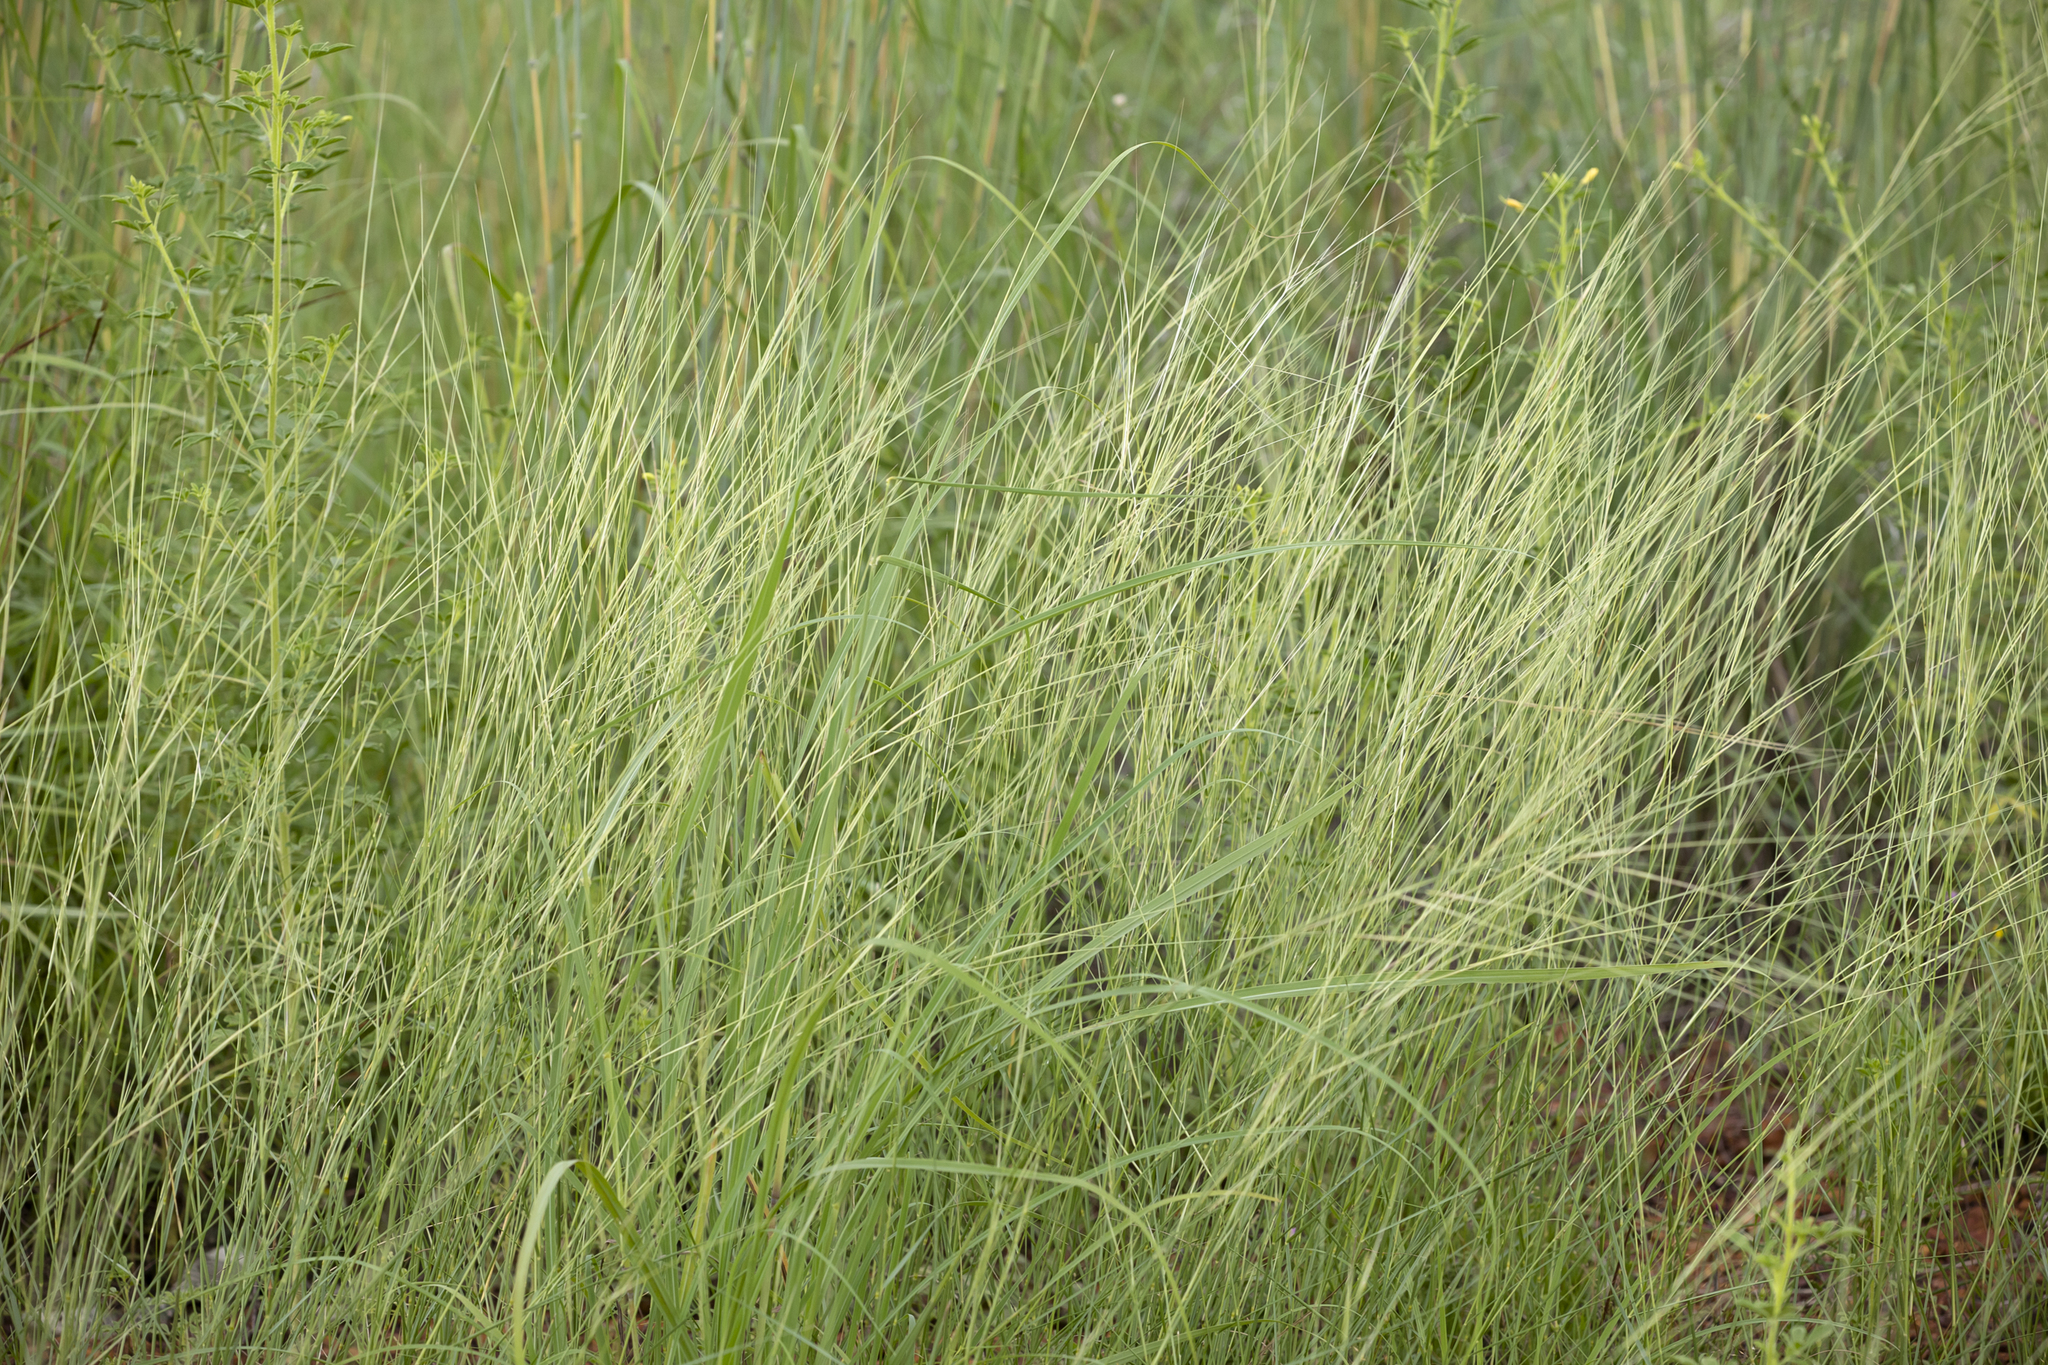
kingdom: Plantae
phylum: Tracheophyta
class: Liliopsida
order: Poales
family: Poaceae
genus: Aristida
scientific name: Aristida hygrometrica
